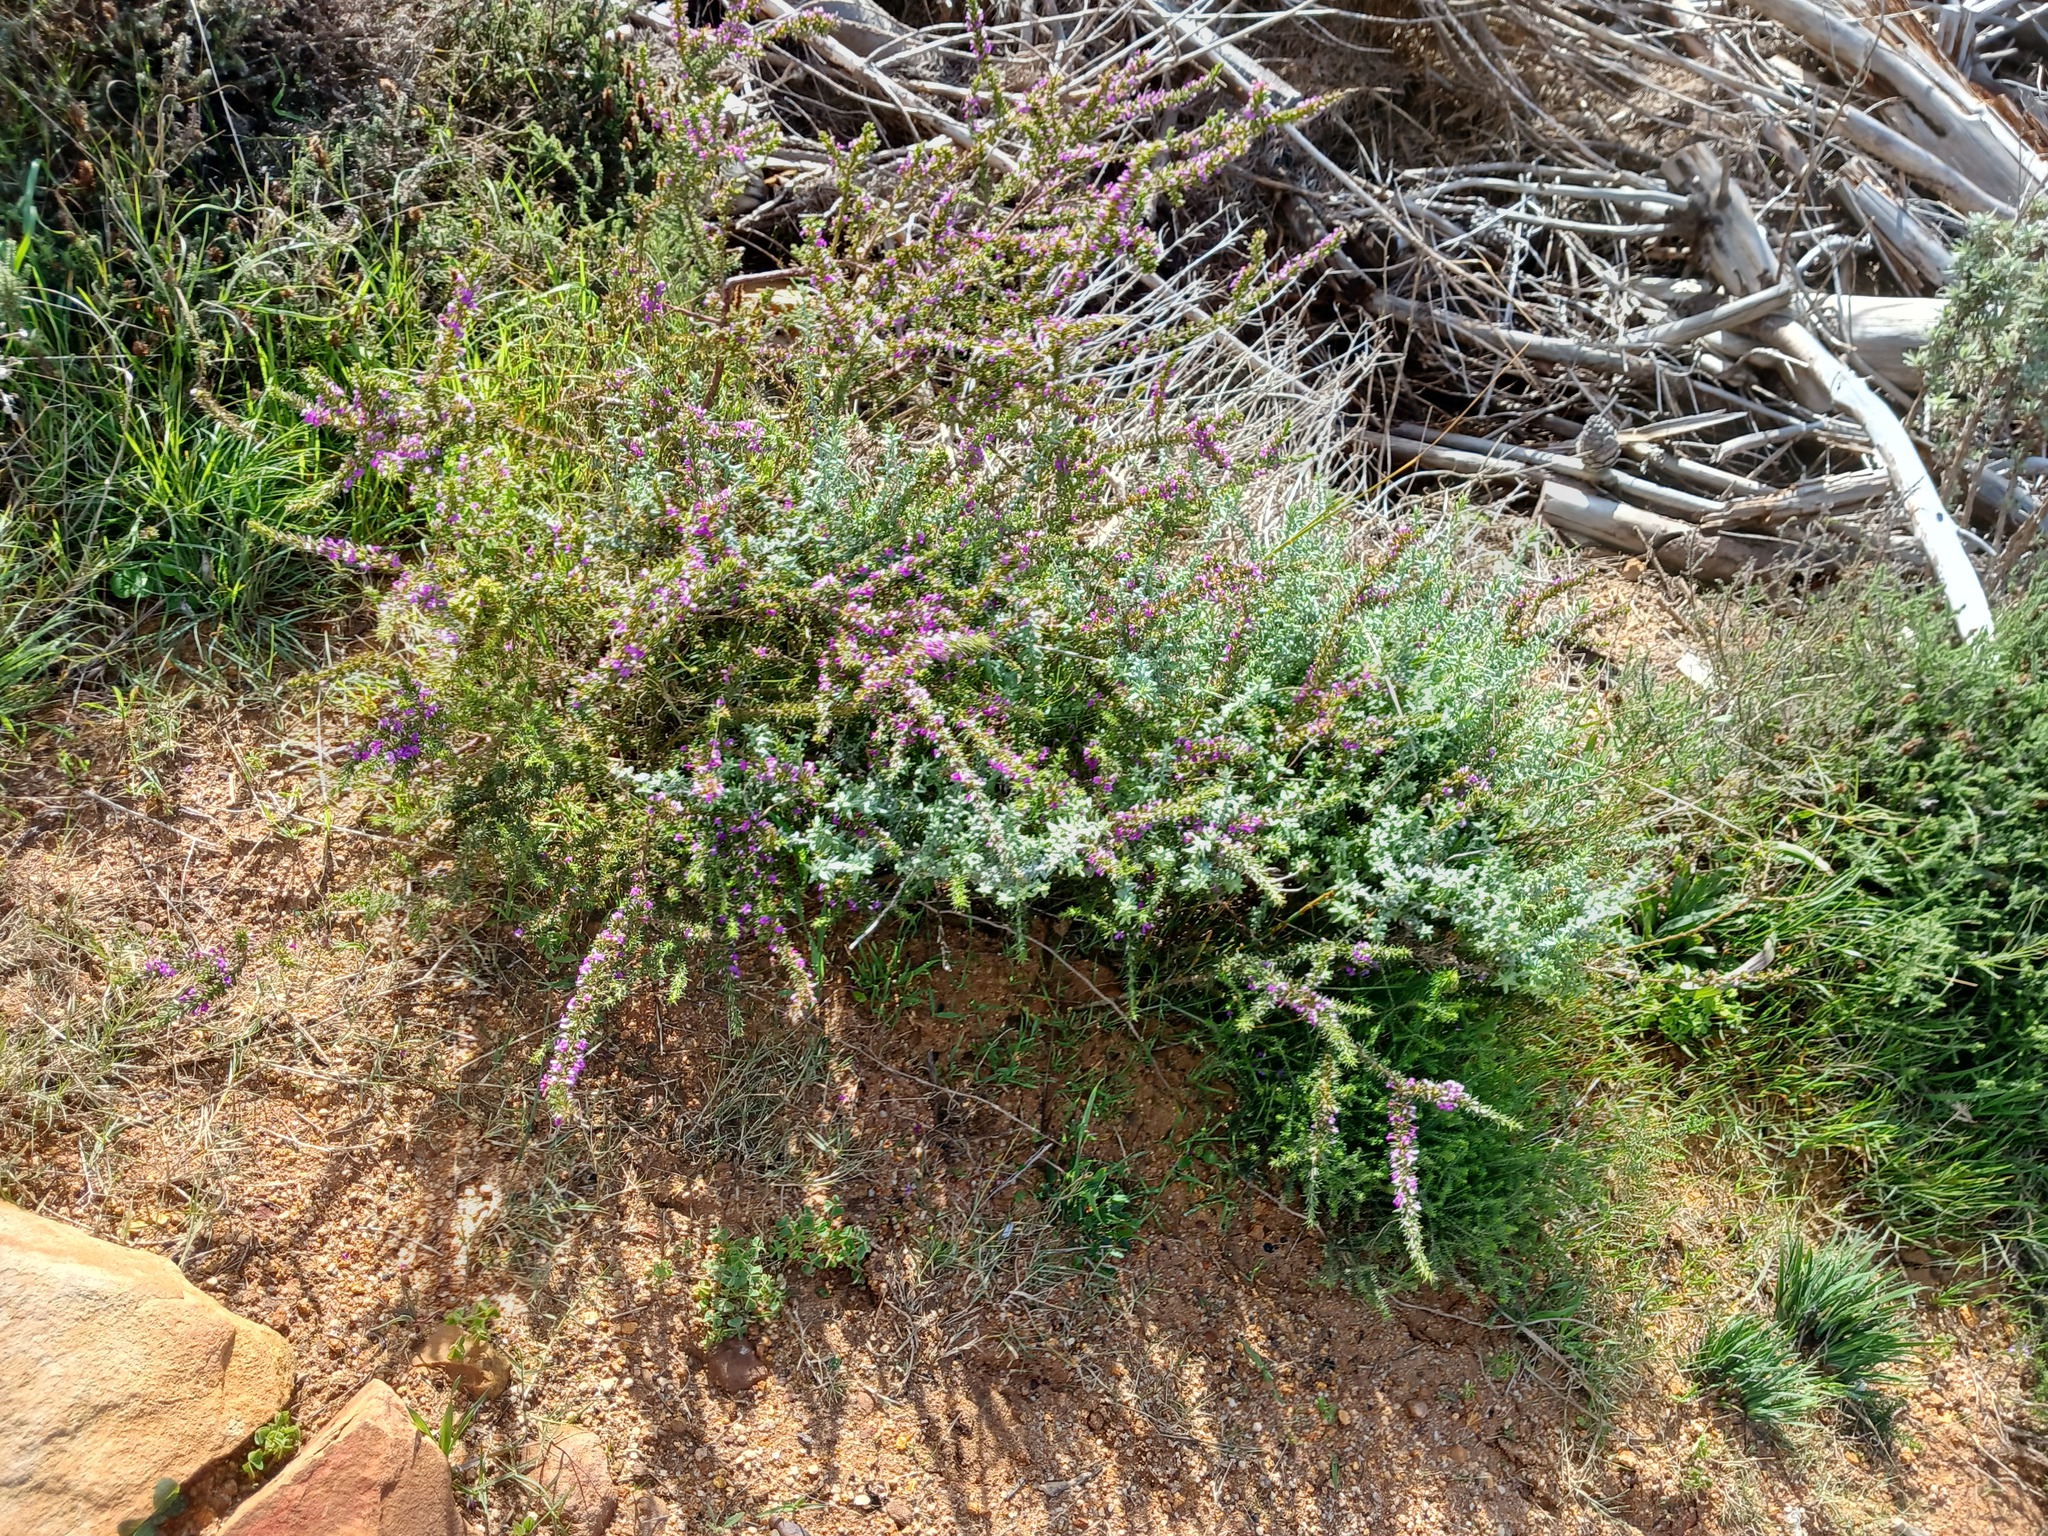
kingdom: Plantae
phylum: Tracheophyta
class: Magnoliopsida
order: Fabales
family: Polygalaceae
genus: Muraltia
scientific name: Muraltia heisteria
